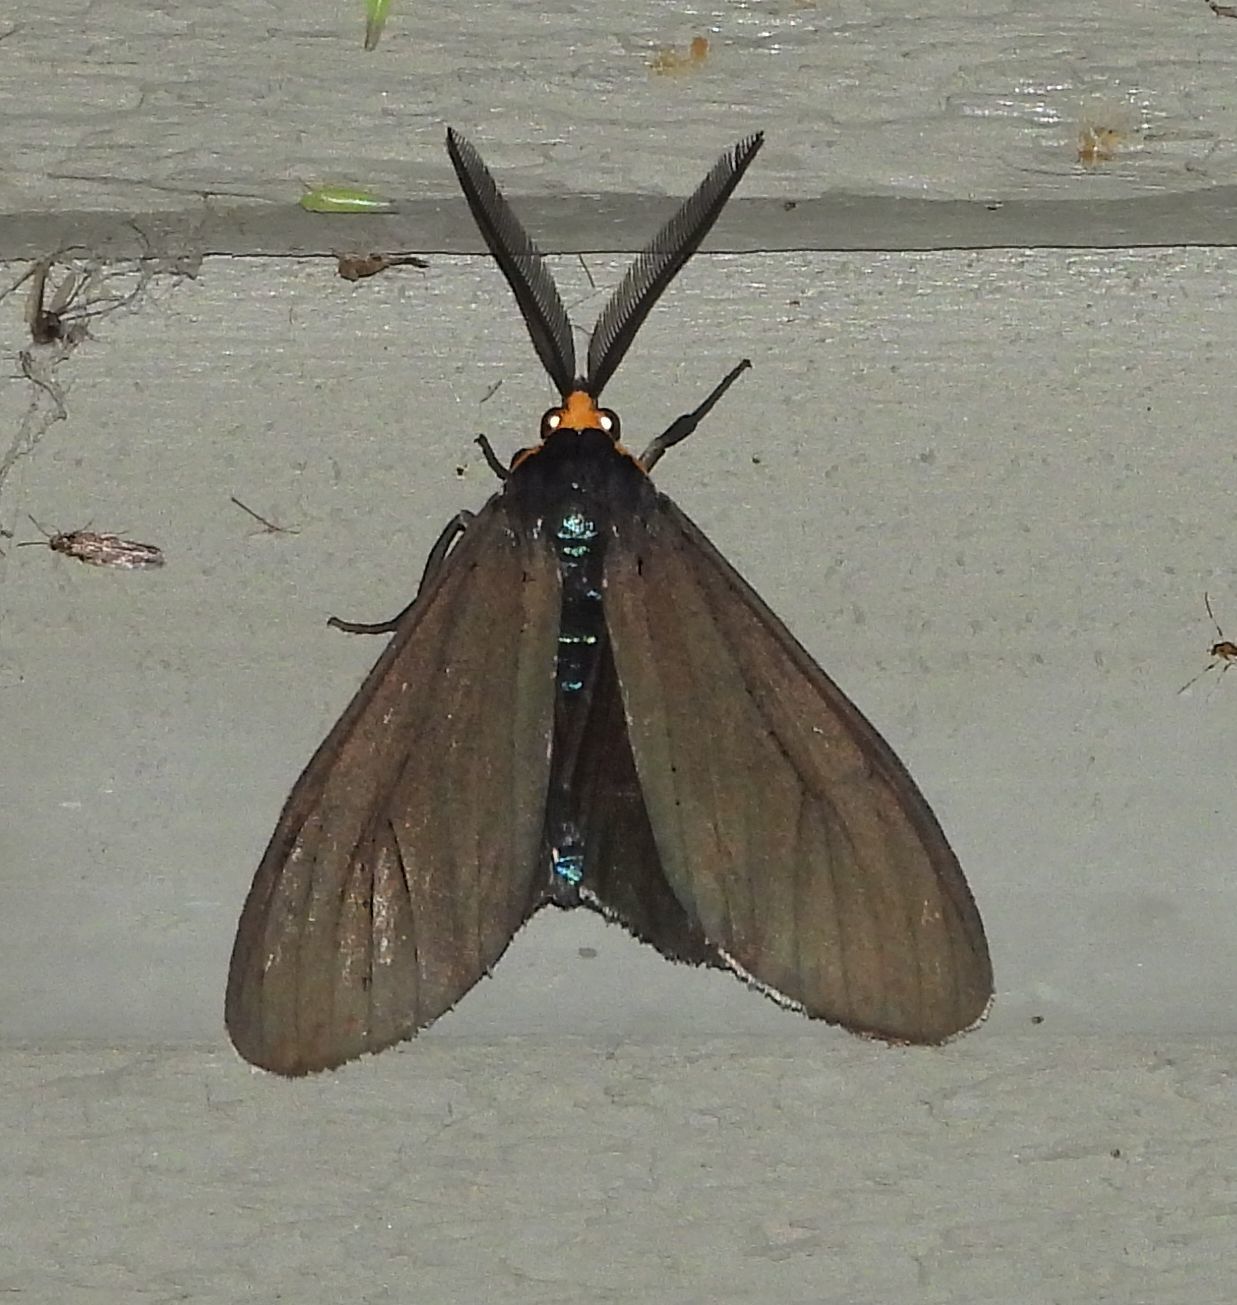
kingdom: Animalia
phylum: Arthropoda
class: Insecta
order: Lepidoptera
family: Erebidae
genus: Ctenucha
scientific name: Ctenucha virginica
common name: Virginia ctenucha moth
